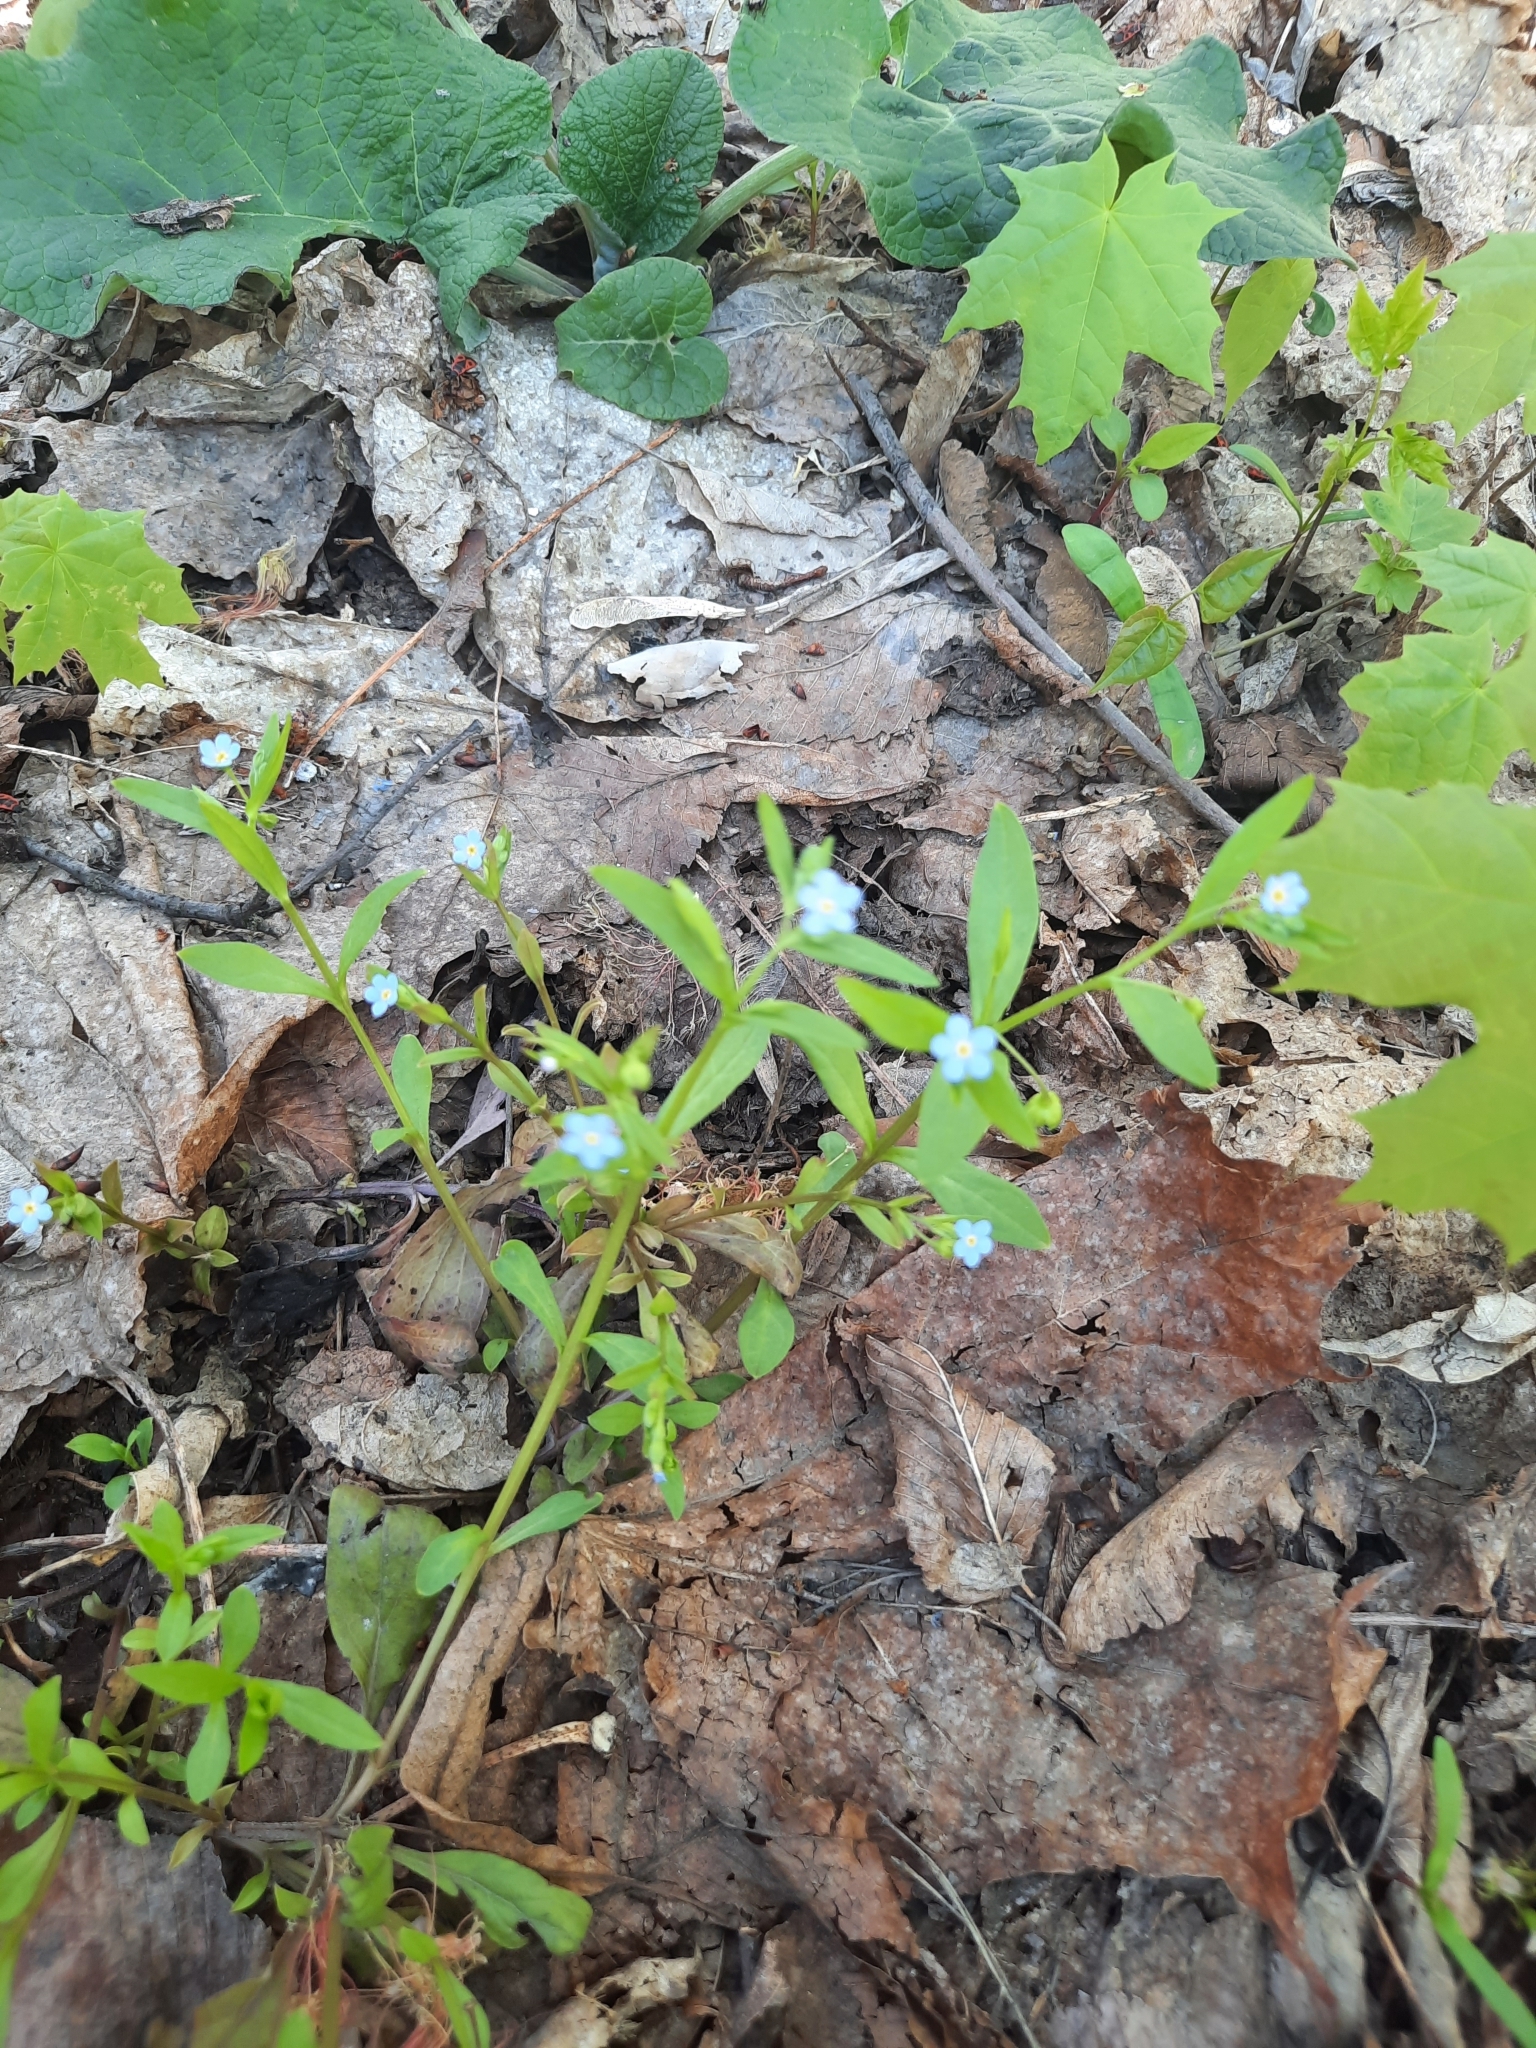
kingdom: Plantae
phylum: Tracheophyta
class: Magnoliopsida
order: Boraginales
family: Boraginaceae
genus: Memoremea
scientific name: Memoremea scorpioides
